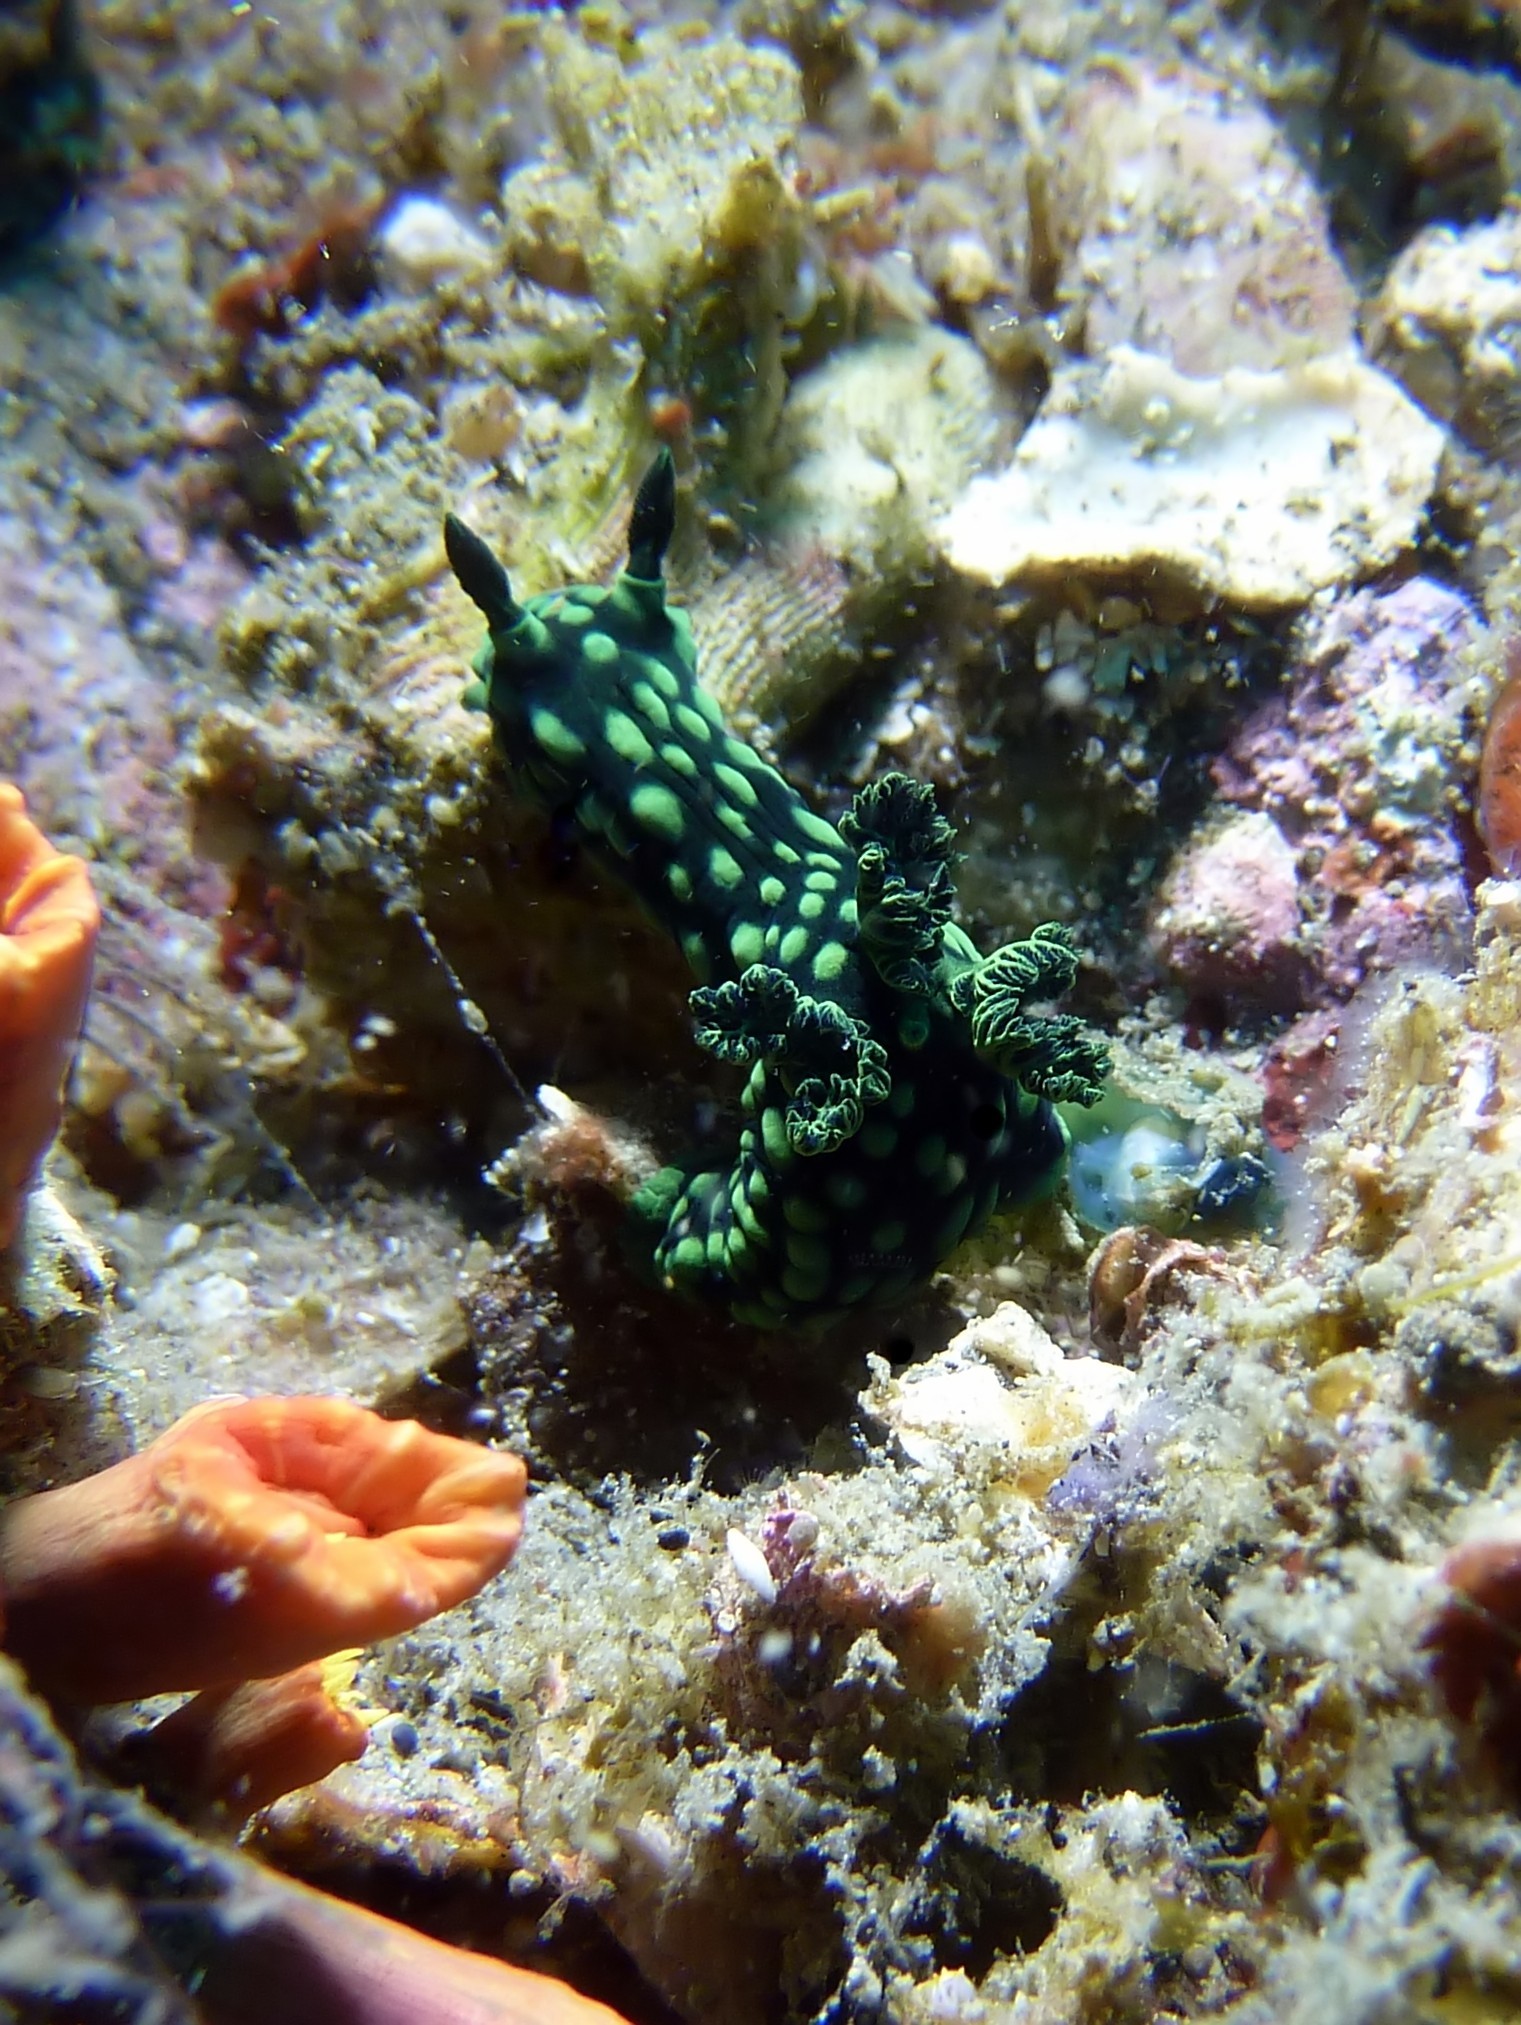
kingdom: Animalia
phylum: Mollusca
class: Gastropoda
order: Nudibranchia
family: Polyceridae
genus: Nembrotha
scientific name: Nembrotha cristata
